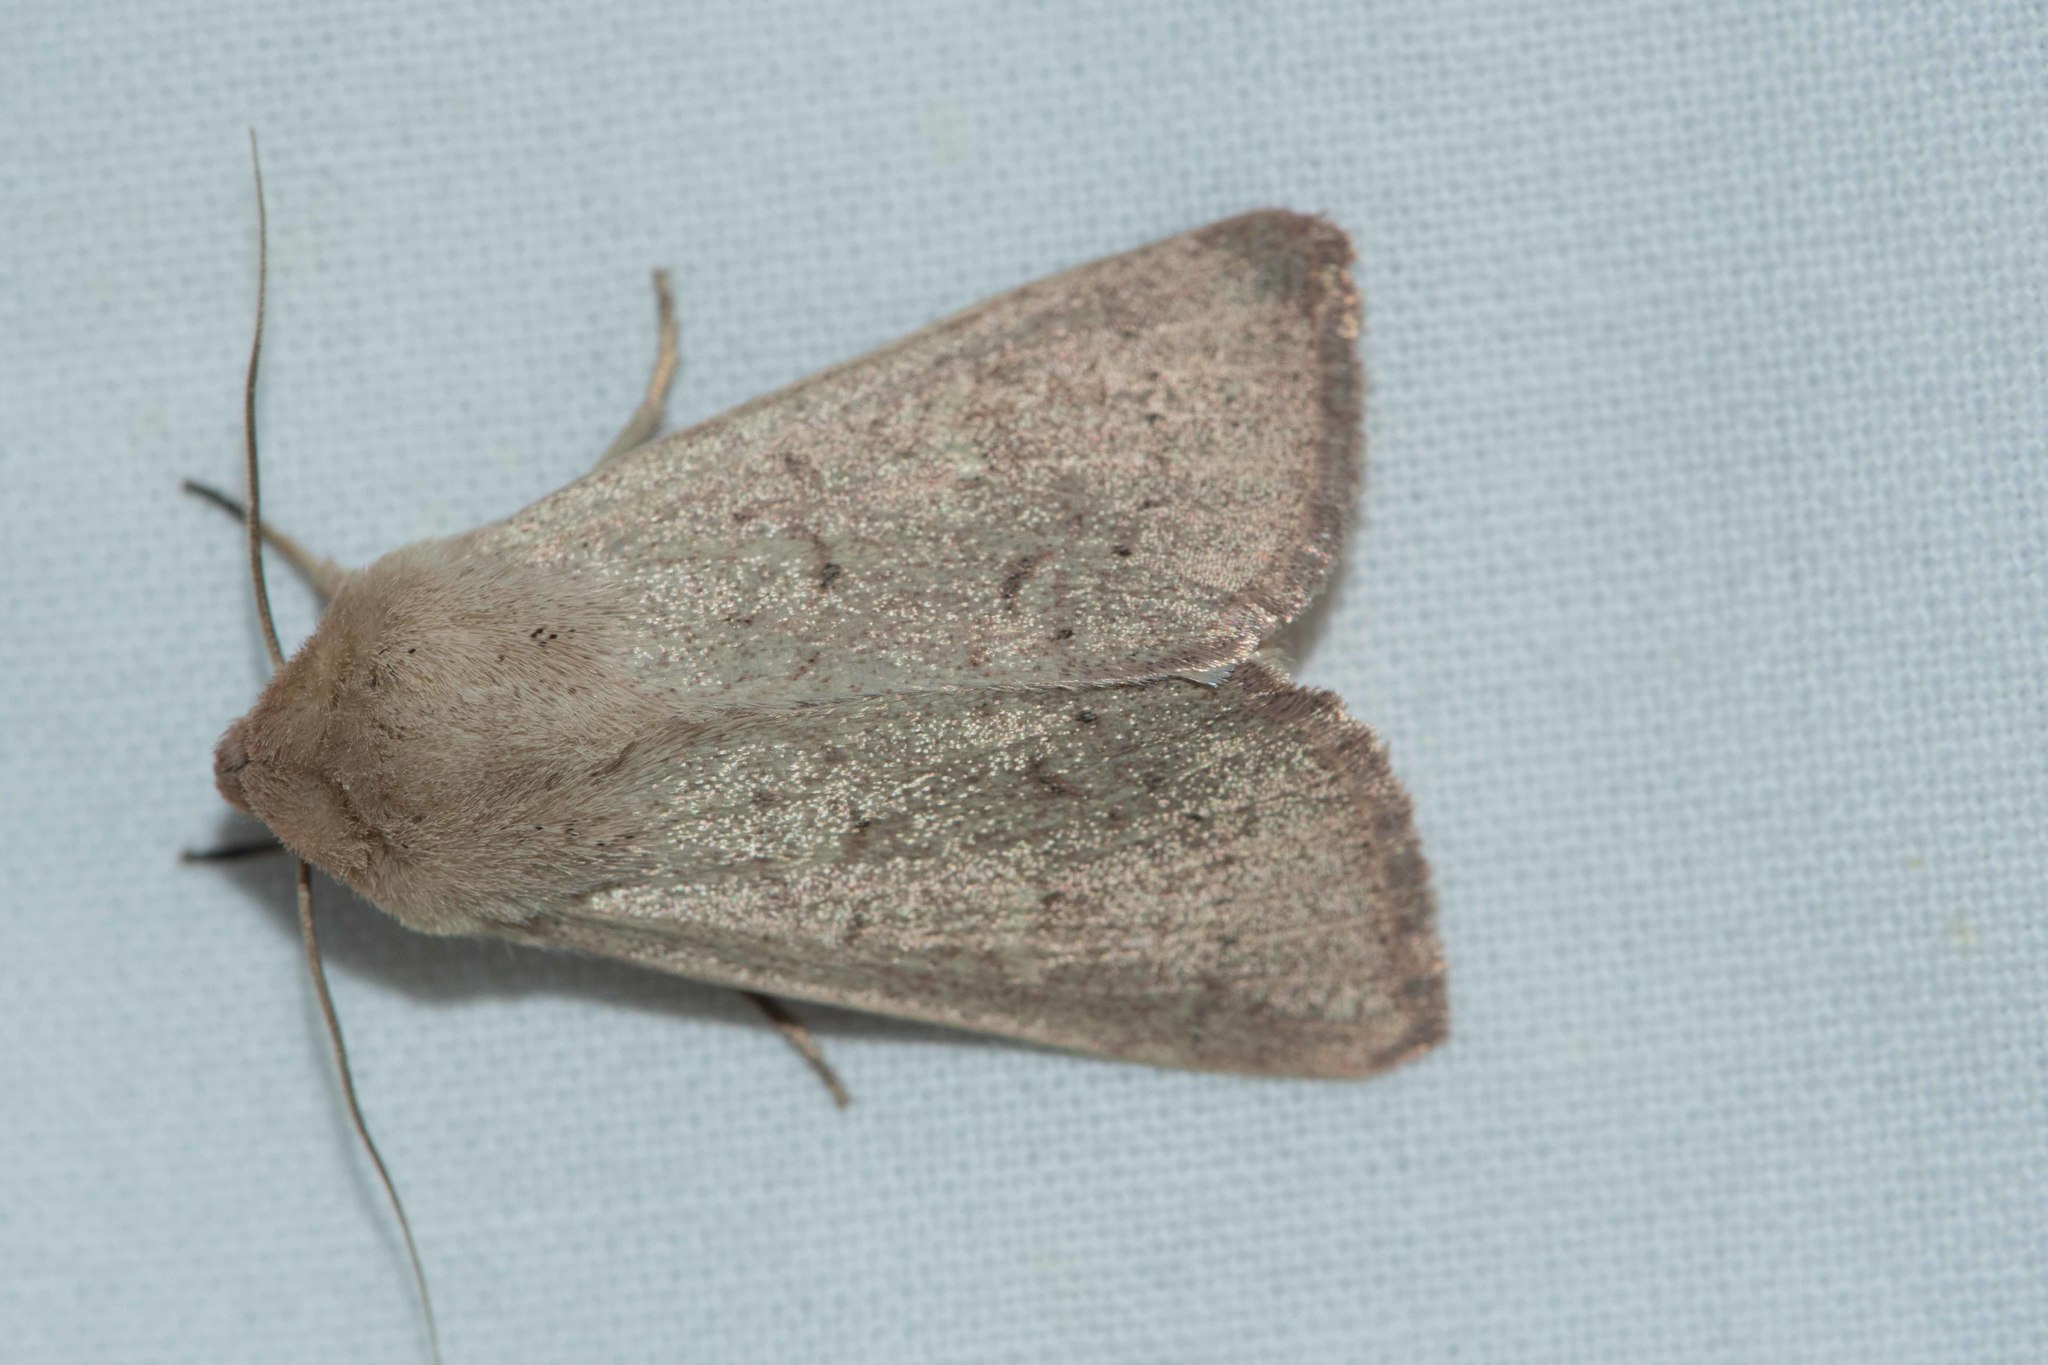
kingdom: Animalia
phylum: Arthropoda
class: Insecta
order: Lepidoptera
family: Noctuidae
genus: Mythimna
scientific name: Mythimna ferrago
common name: Clay
